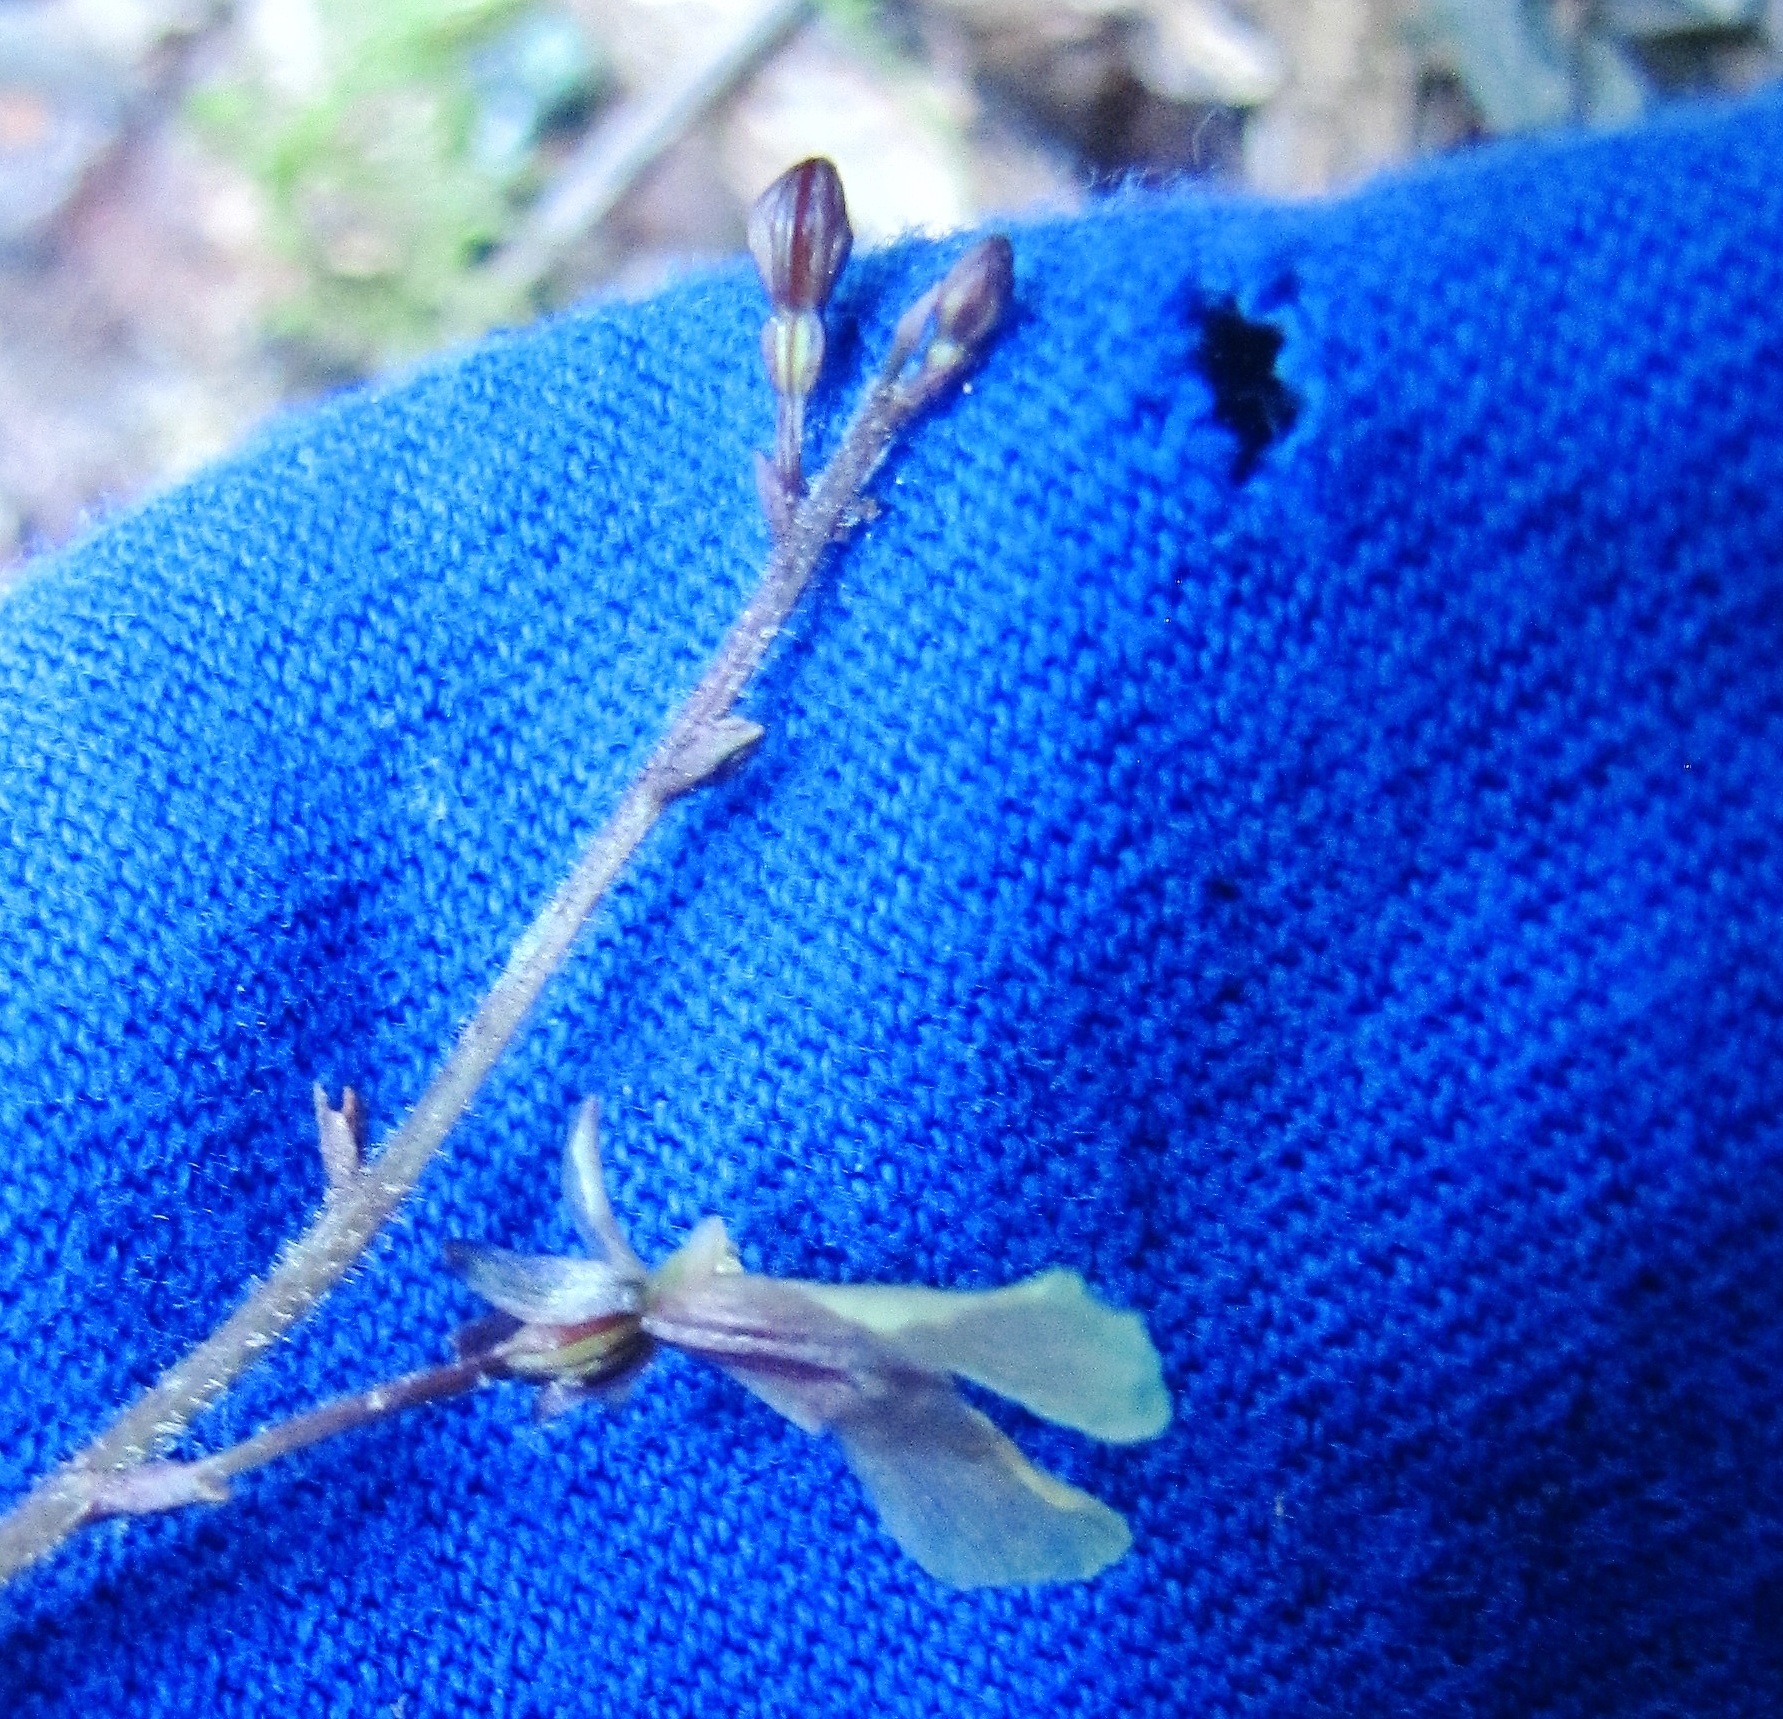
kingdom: Plantae
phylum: Tracheophyta
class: Liliopsida
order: Asparagales
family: Orchidaceae
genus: Neottia
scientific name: Neottia smallii
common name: Kidneyleaf twayblade
